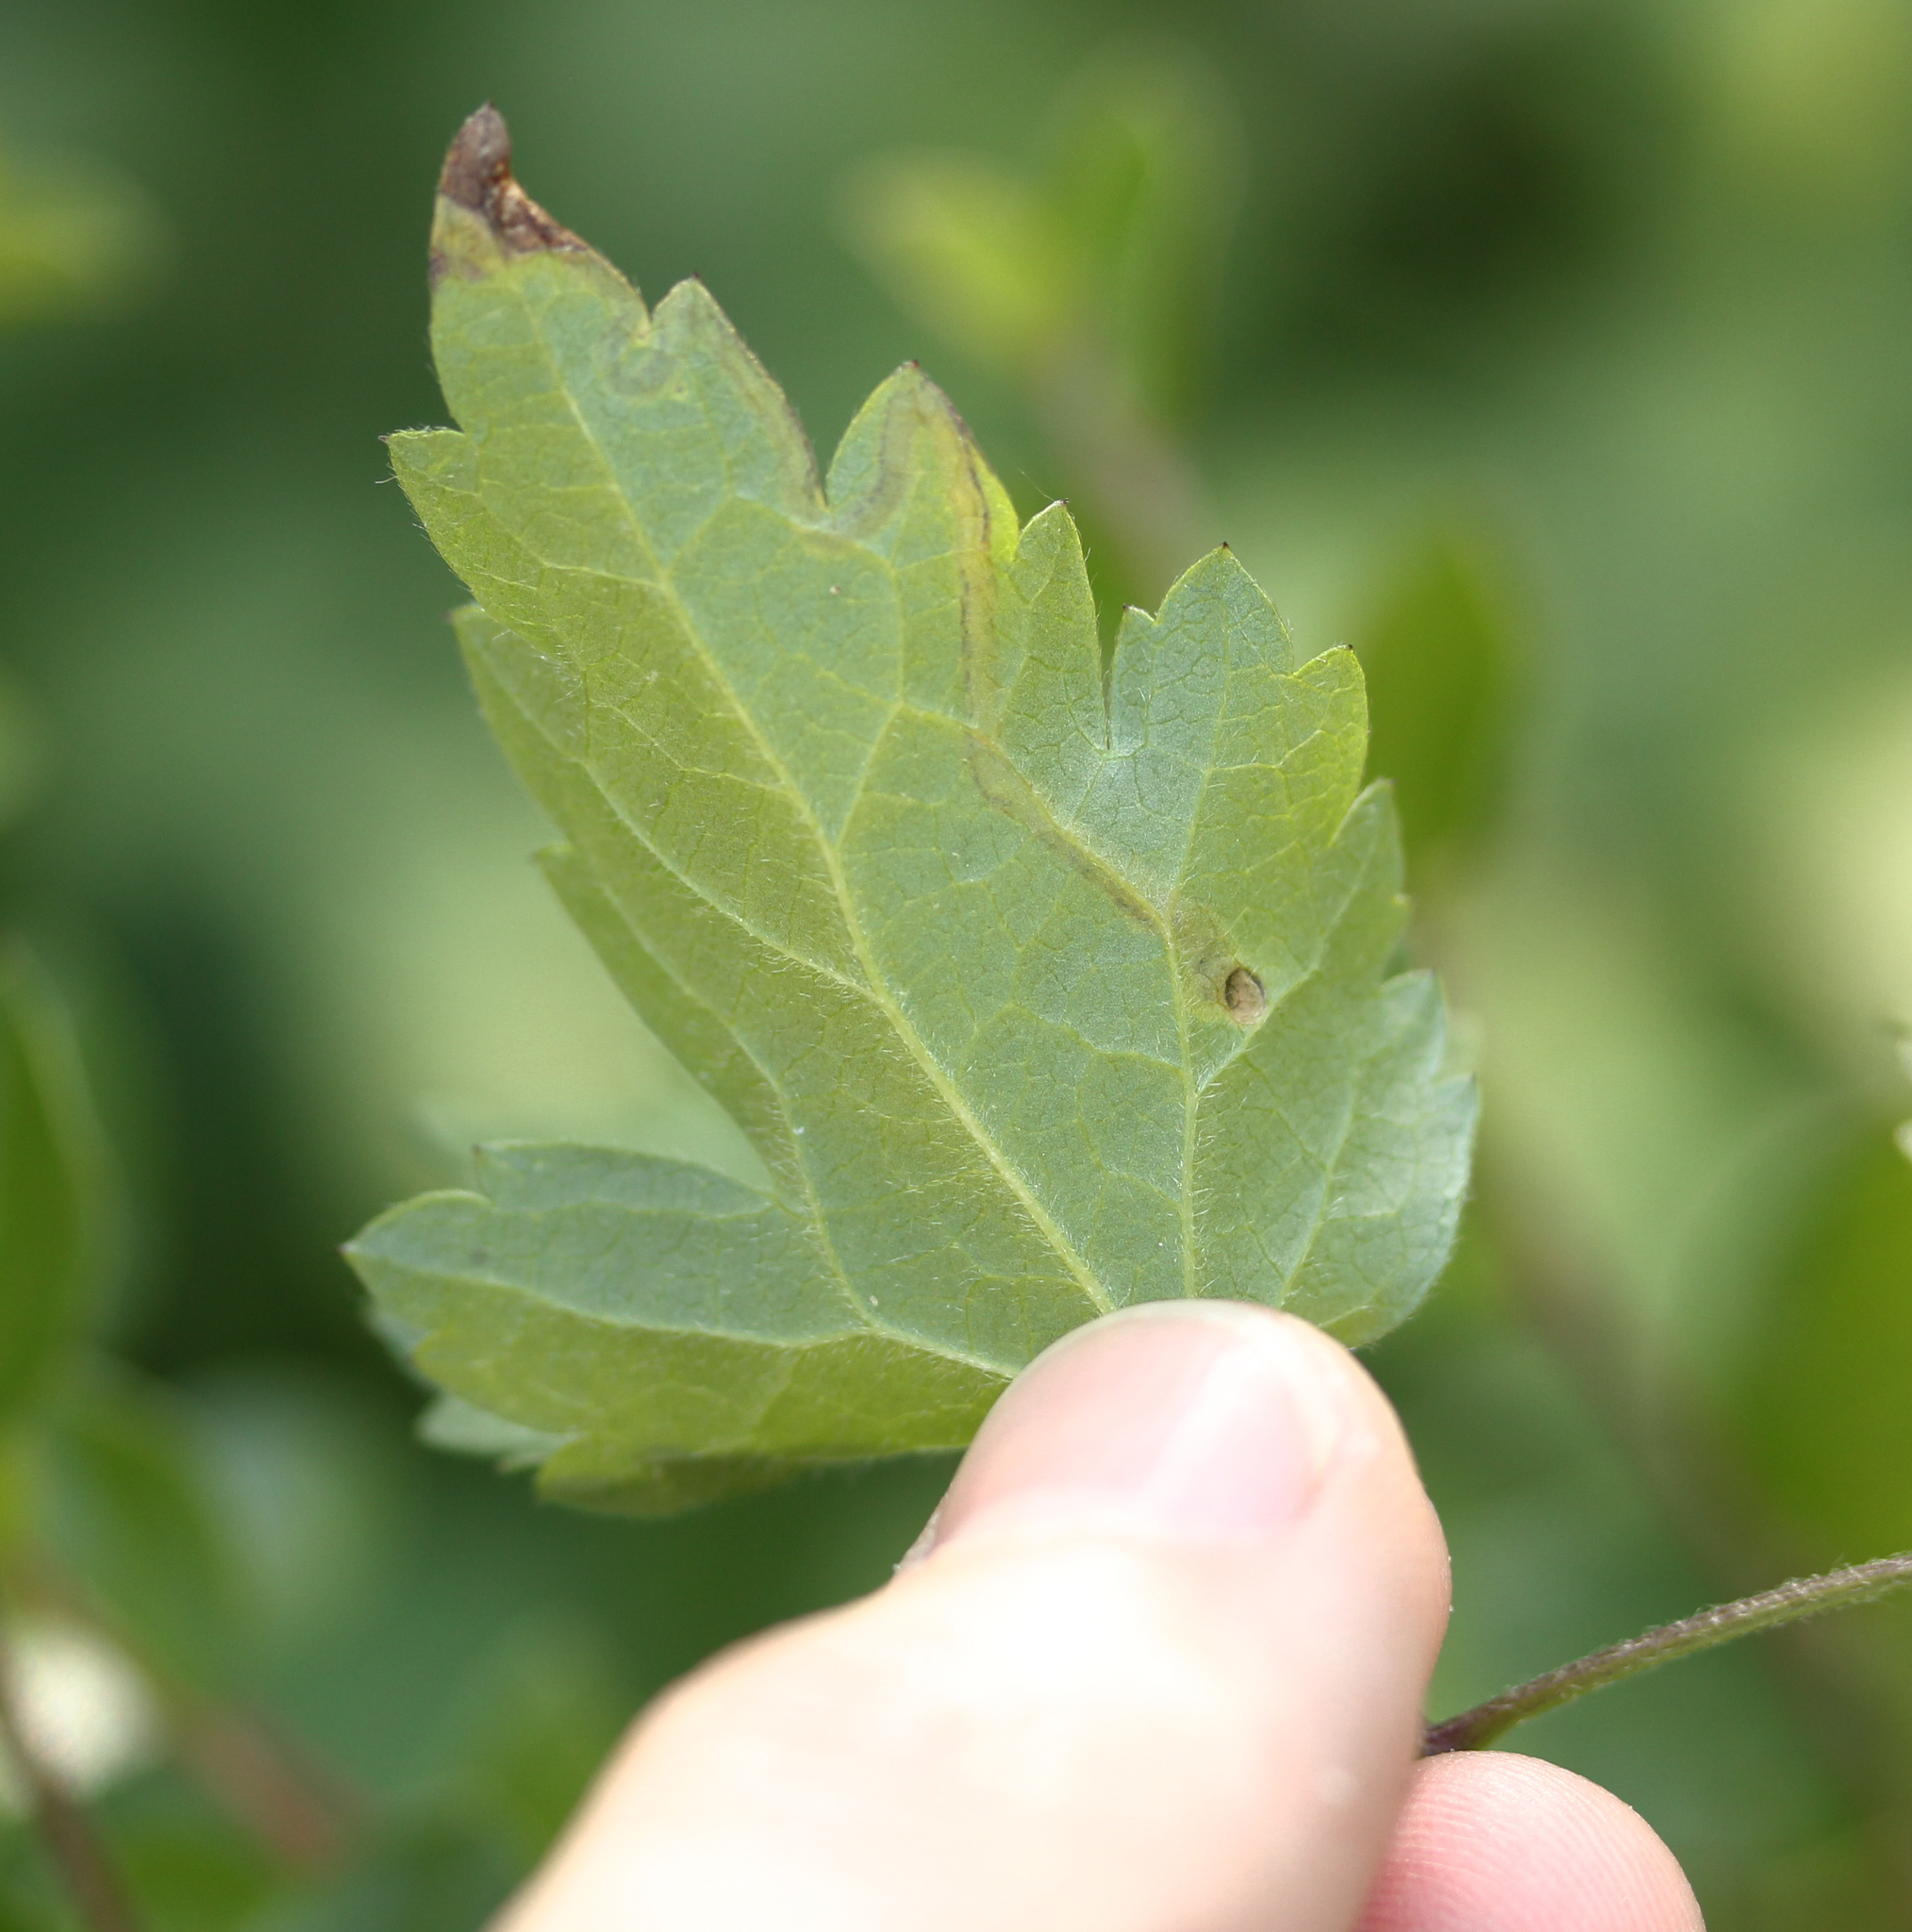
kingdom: Plantae
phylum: Tracheophyta
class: Magnoliopsida
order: Ranunculales
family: Ranunculaceae
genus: Clematis
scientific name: Clematis vitalba
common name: Evergreen clematis
